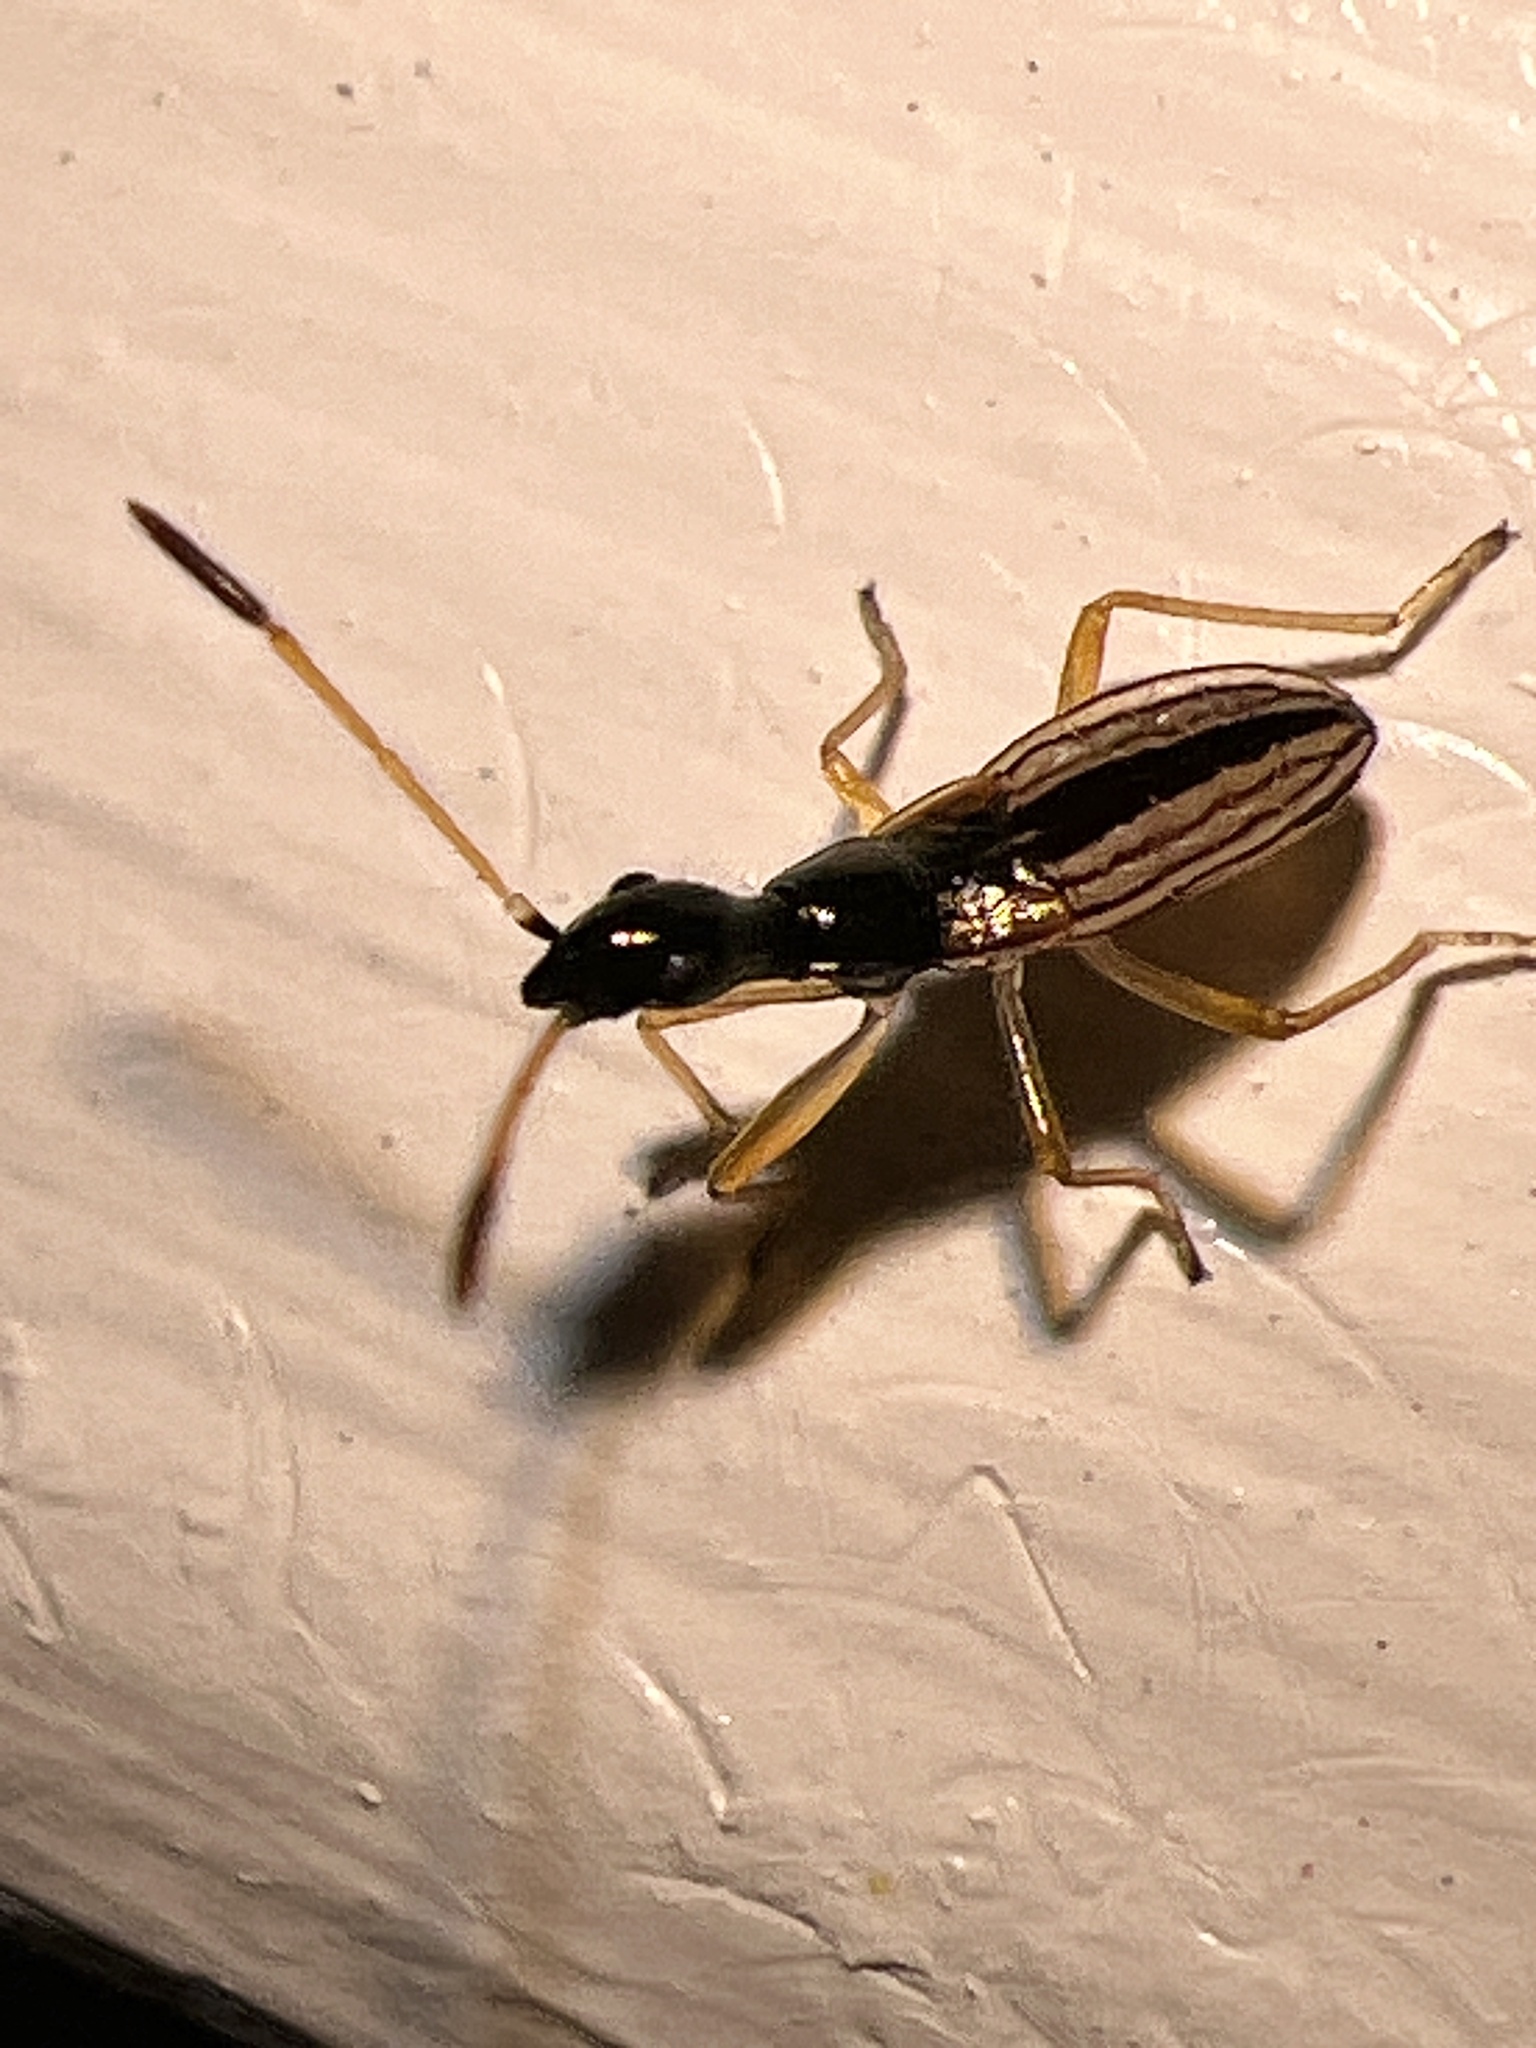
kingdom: Animalia
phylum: Arthropoda
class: Insecta
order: Hemiptera
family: Rhyparochromidae
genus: Myodocha
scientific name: Myodocha serripes
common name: Long-necked seed bug
